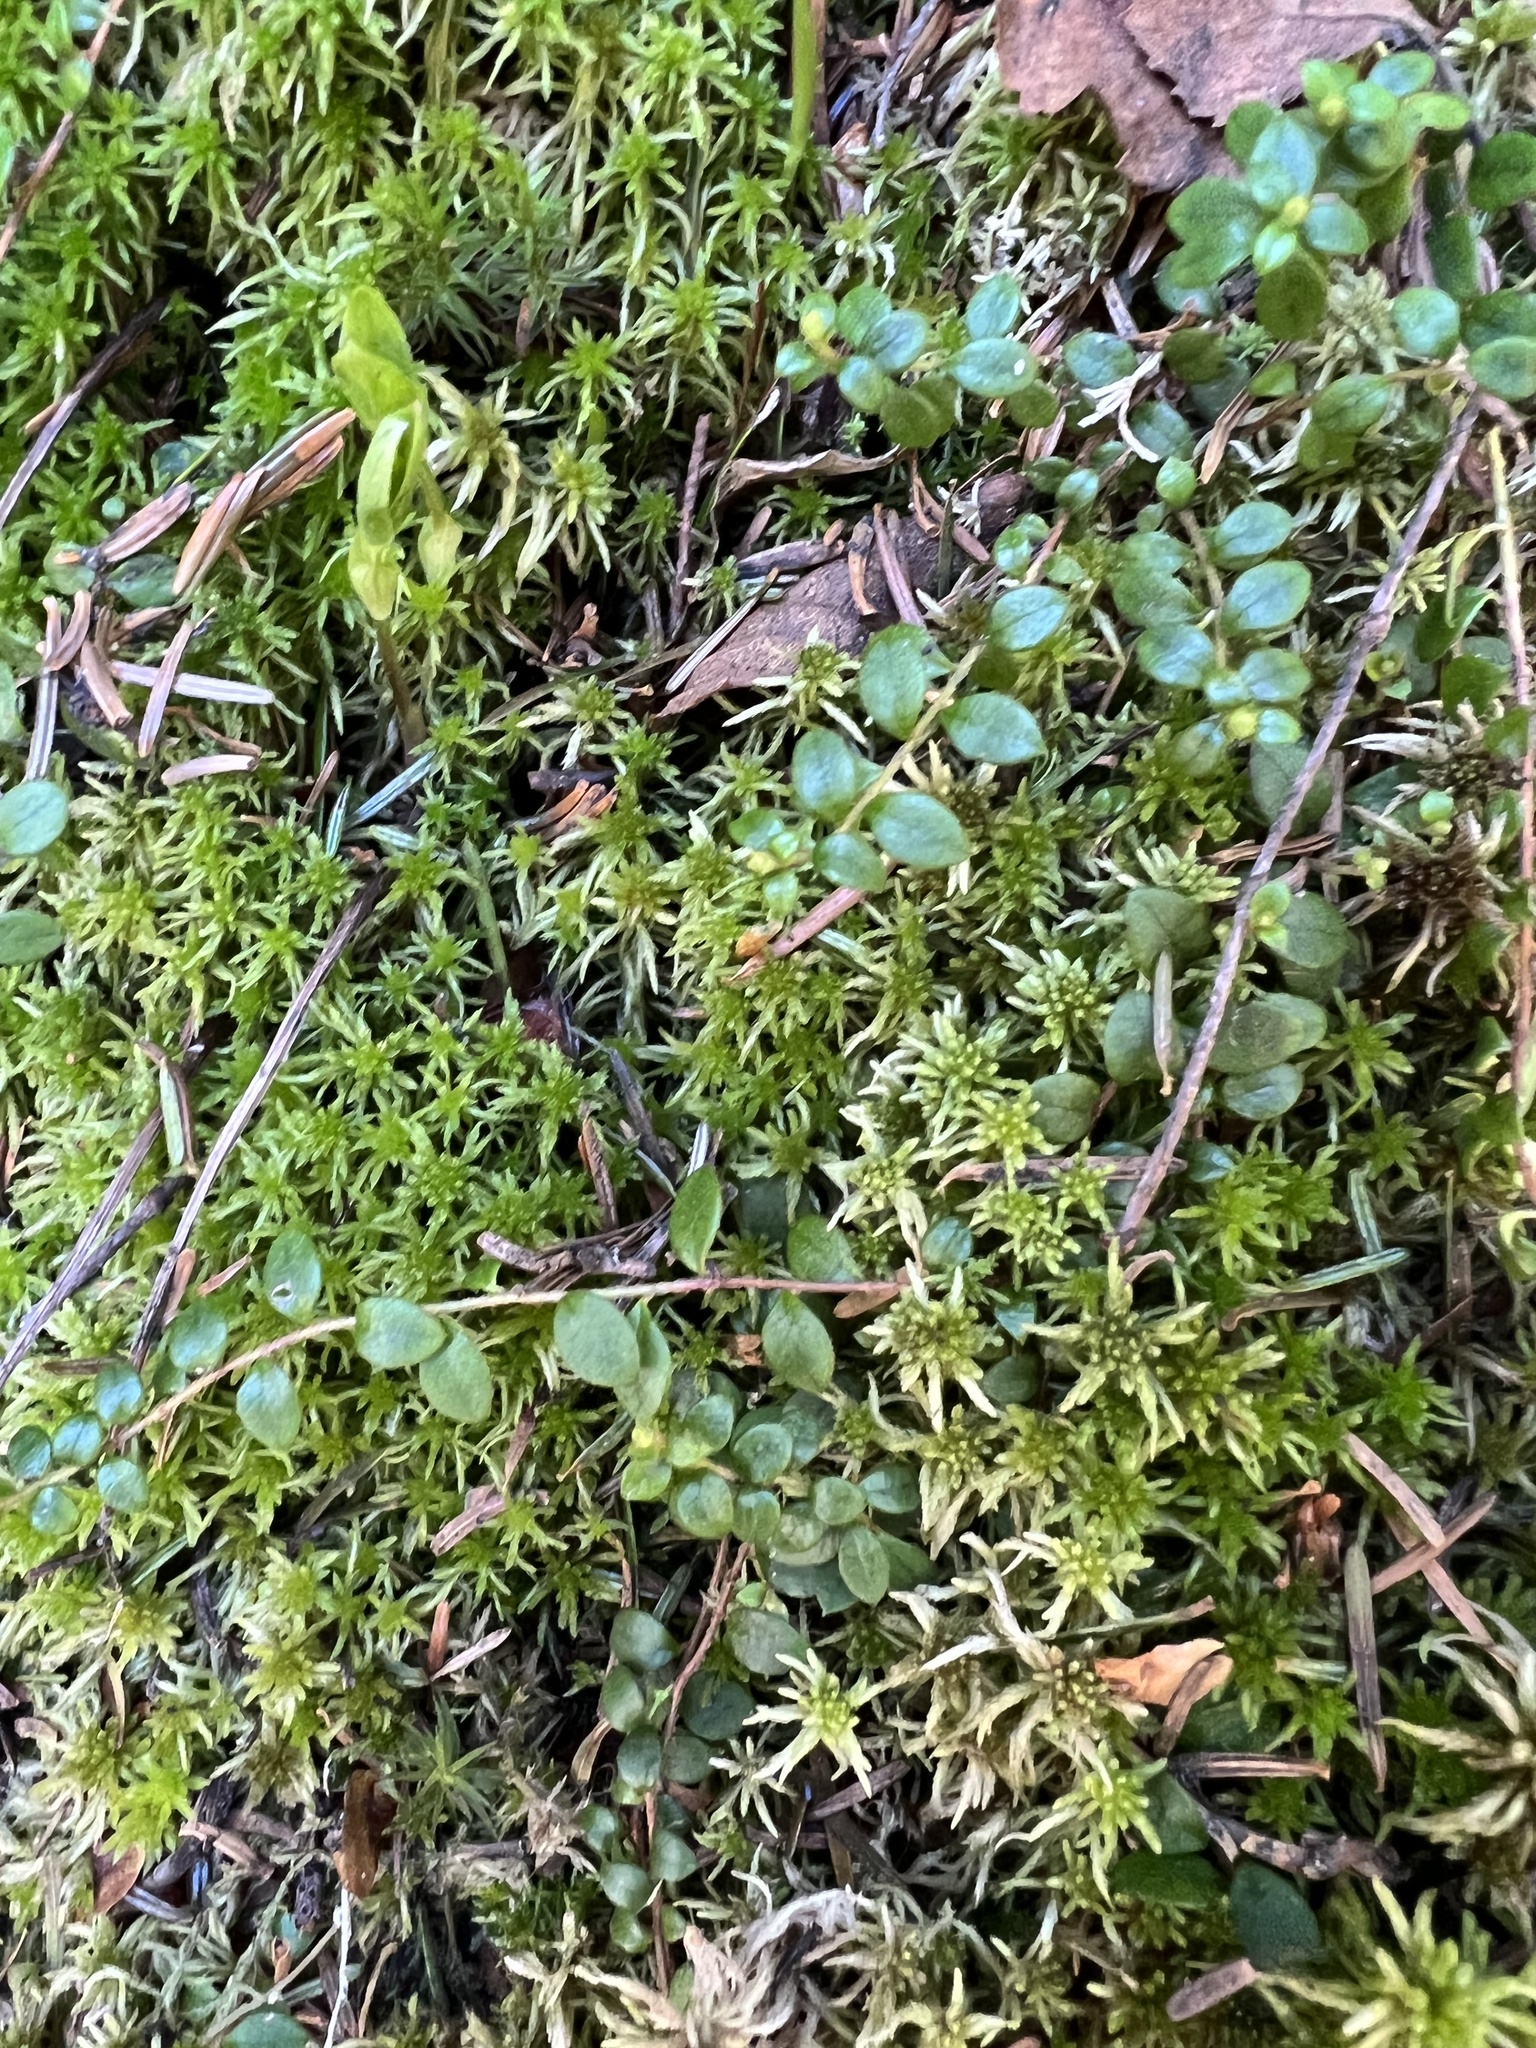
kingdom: Plantae
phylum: Tracheophyta
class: Magnoliopsida
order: Ericales
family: Ericaceae
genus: Gaultheria
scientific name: Gaultheria hispidula
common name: Cancer wintergreen
